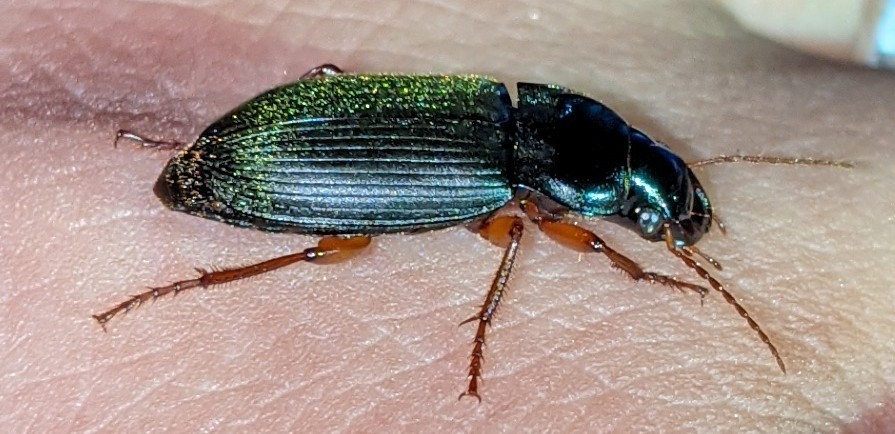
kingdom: Animalia
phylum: Arthropoda
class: Insecta
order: Coleoptera
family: Carabidae
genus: Harpalus
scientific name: Harpalus rufipes
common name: Strawberry harp ground beetle
